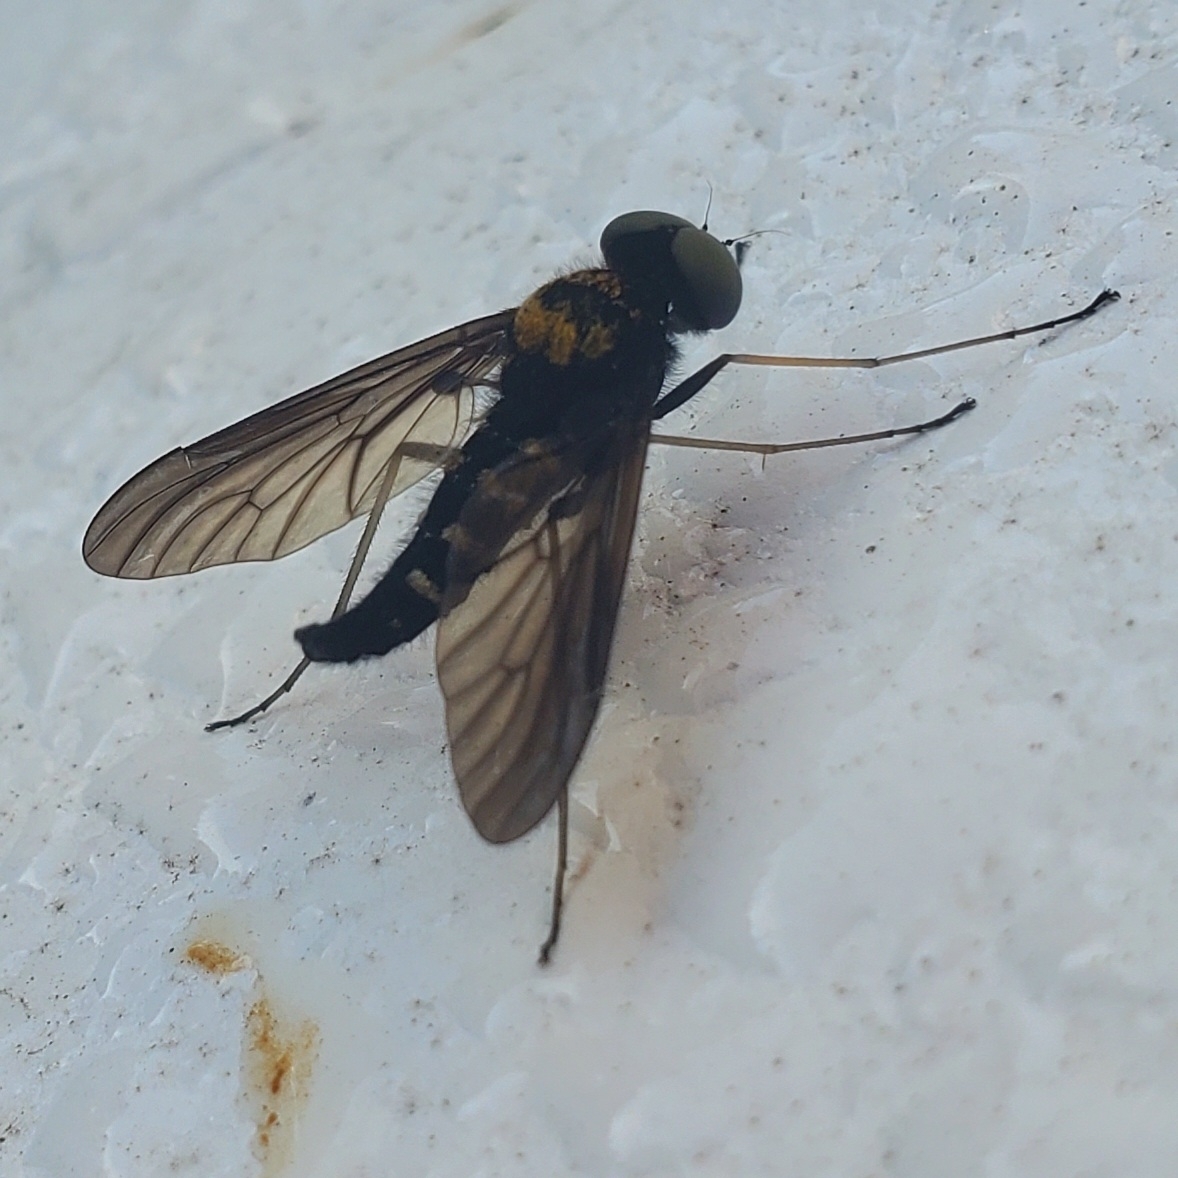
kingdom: Animalia
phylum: Arthropoda
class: Insecta
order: Diptera
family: Rhagionidae
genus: Chrysopilus
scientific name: Chrysopilus thoracicus
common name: Golden-backed snipe fly
